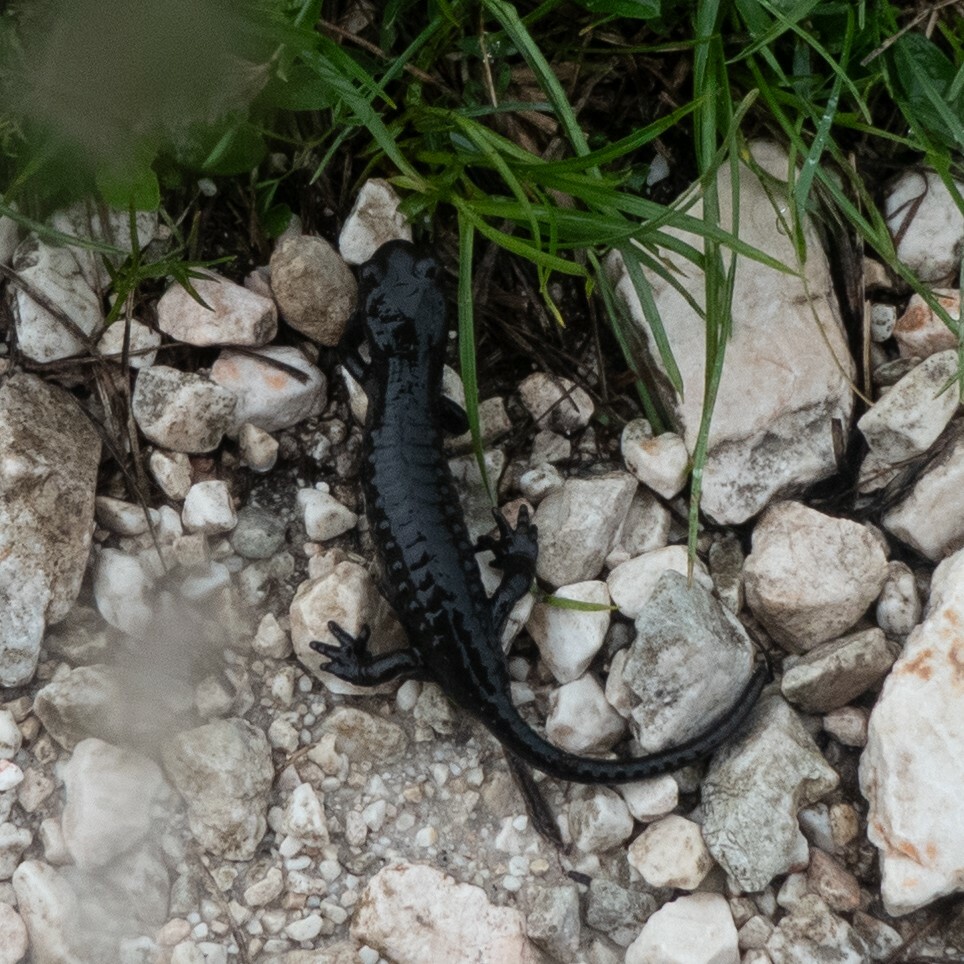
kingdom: Animalia
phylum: Chordata
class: Amphibia
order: Caudata
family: Salamandridae
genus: Salamandra
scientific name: Salamandra atra
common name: Alpine salamander
